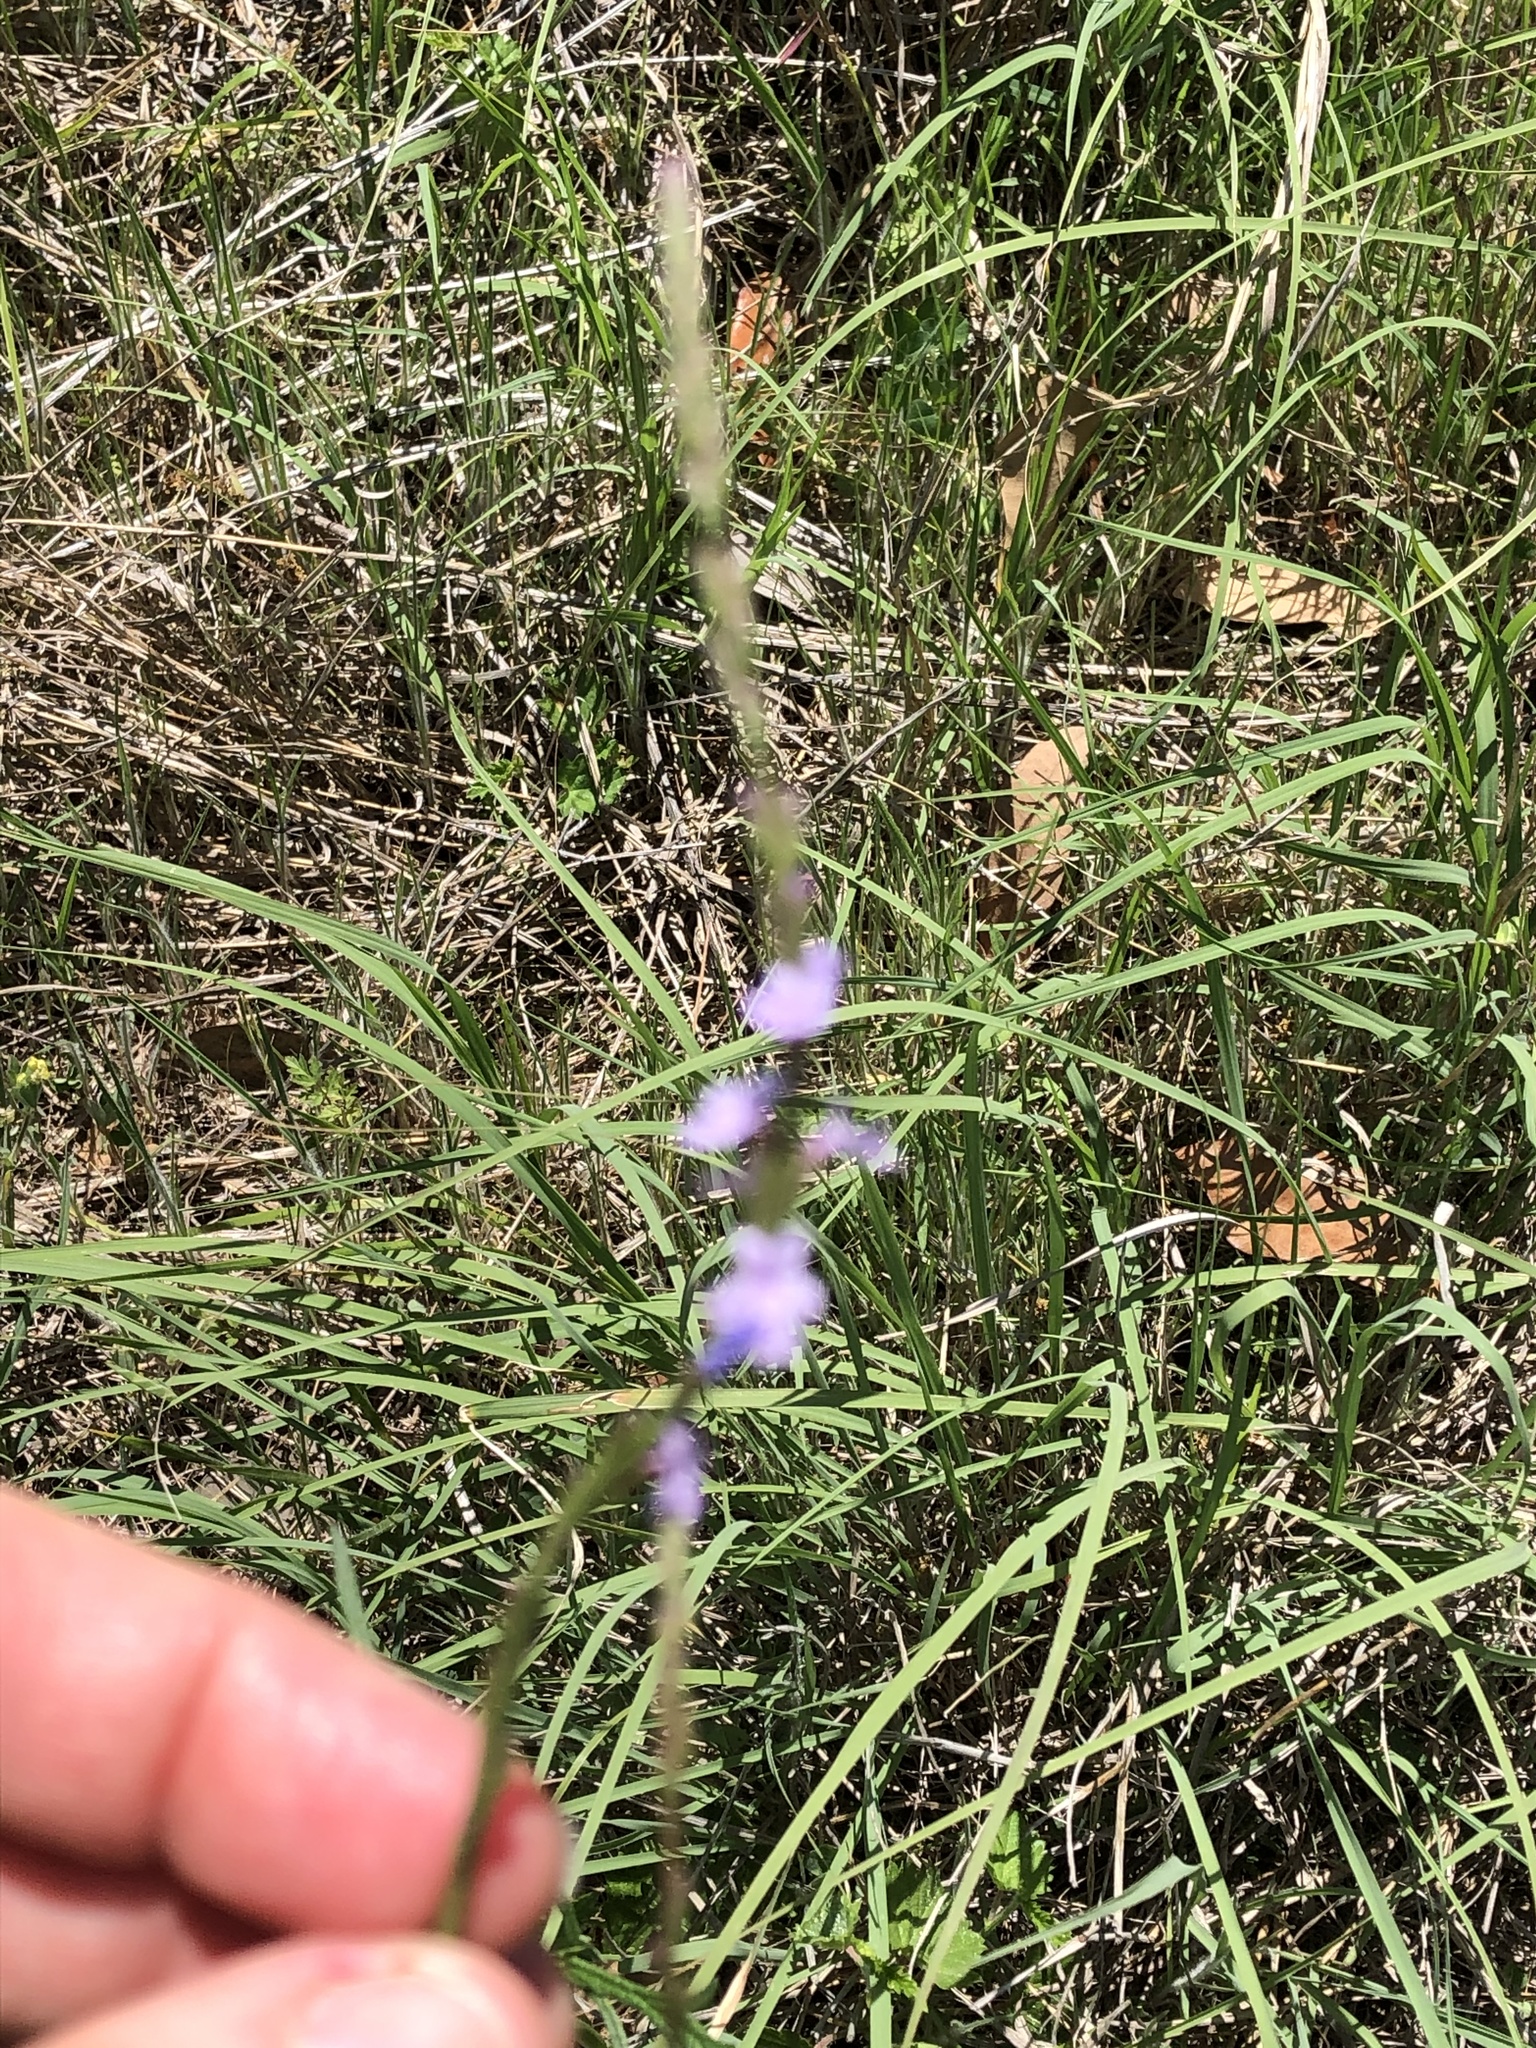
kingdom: Plantae
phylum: Tracheophyta
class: Magnoliopsida
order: Lamiales
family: Verbenaceae
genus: Verbena
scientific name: Verbena halei
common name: Texas vervain
